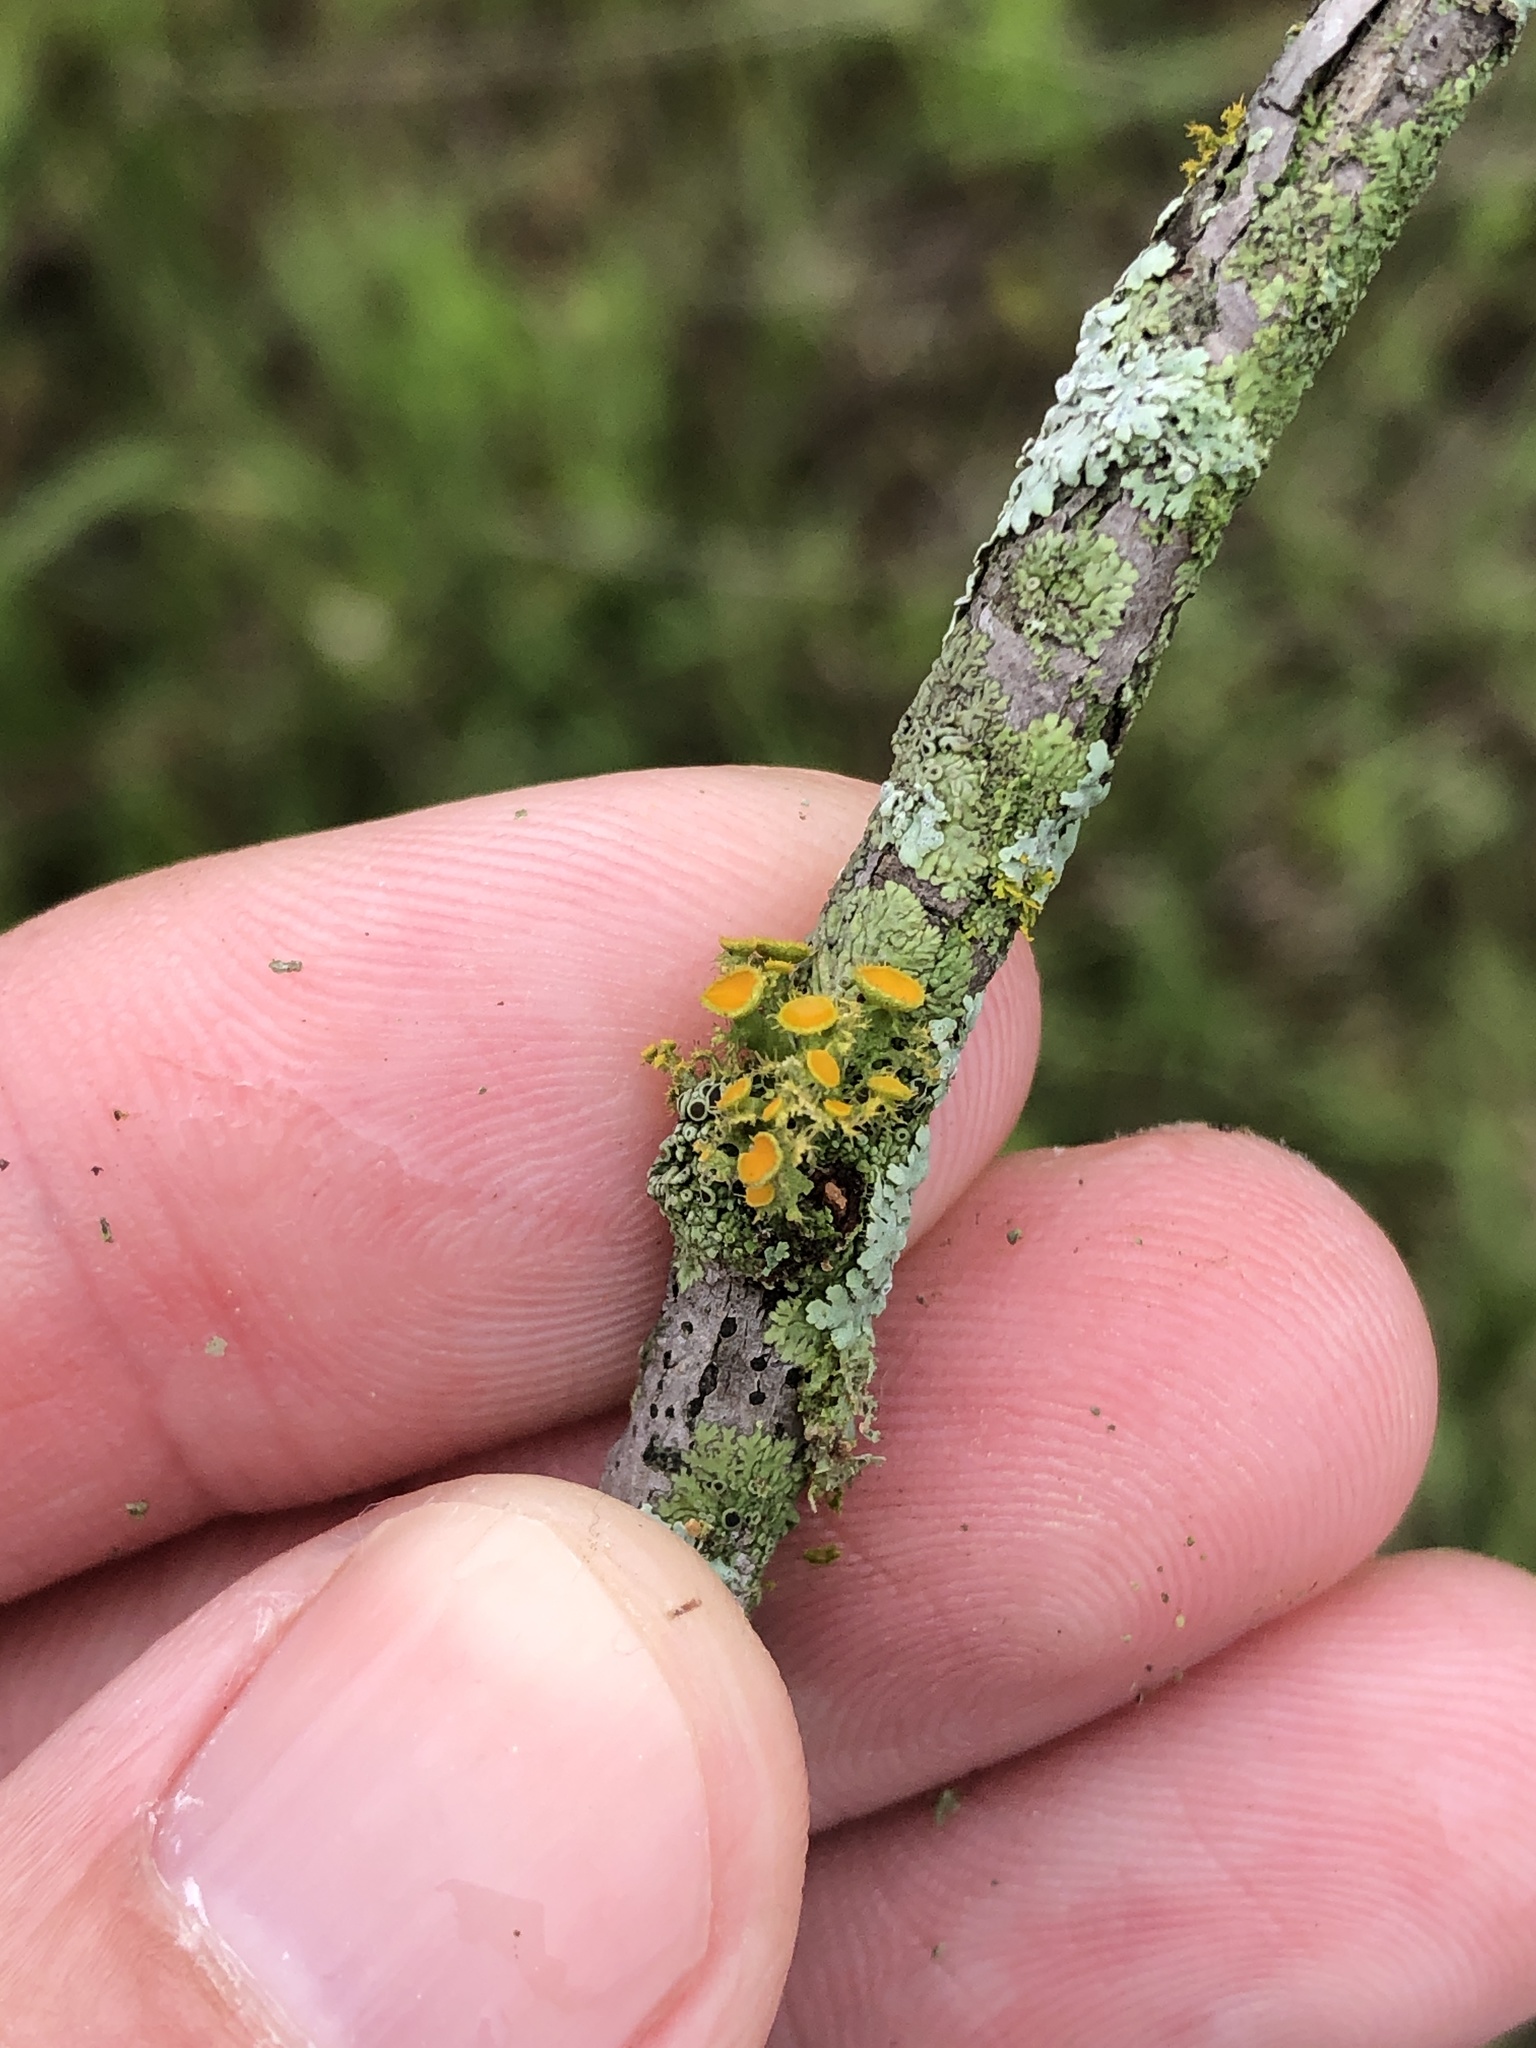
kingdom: Fungi
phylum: Ascomycota
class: Lecanoromycetes
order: Teloschistales
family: Teloschistaceae
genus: Niorma
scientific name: Niorma chrysophthalma
